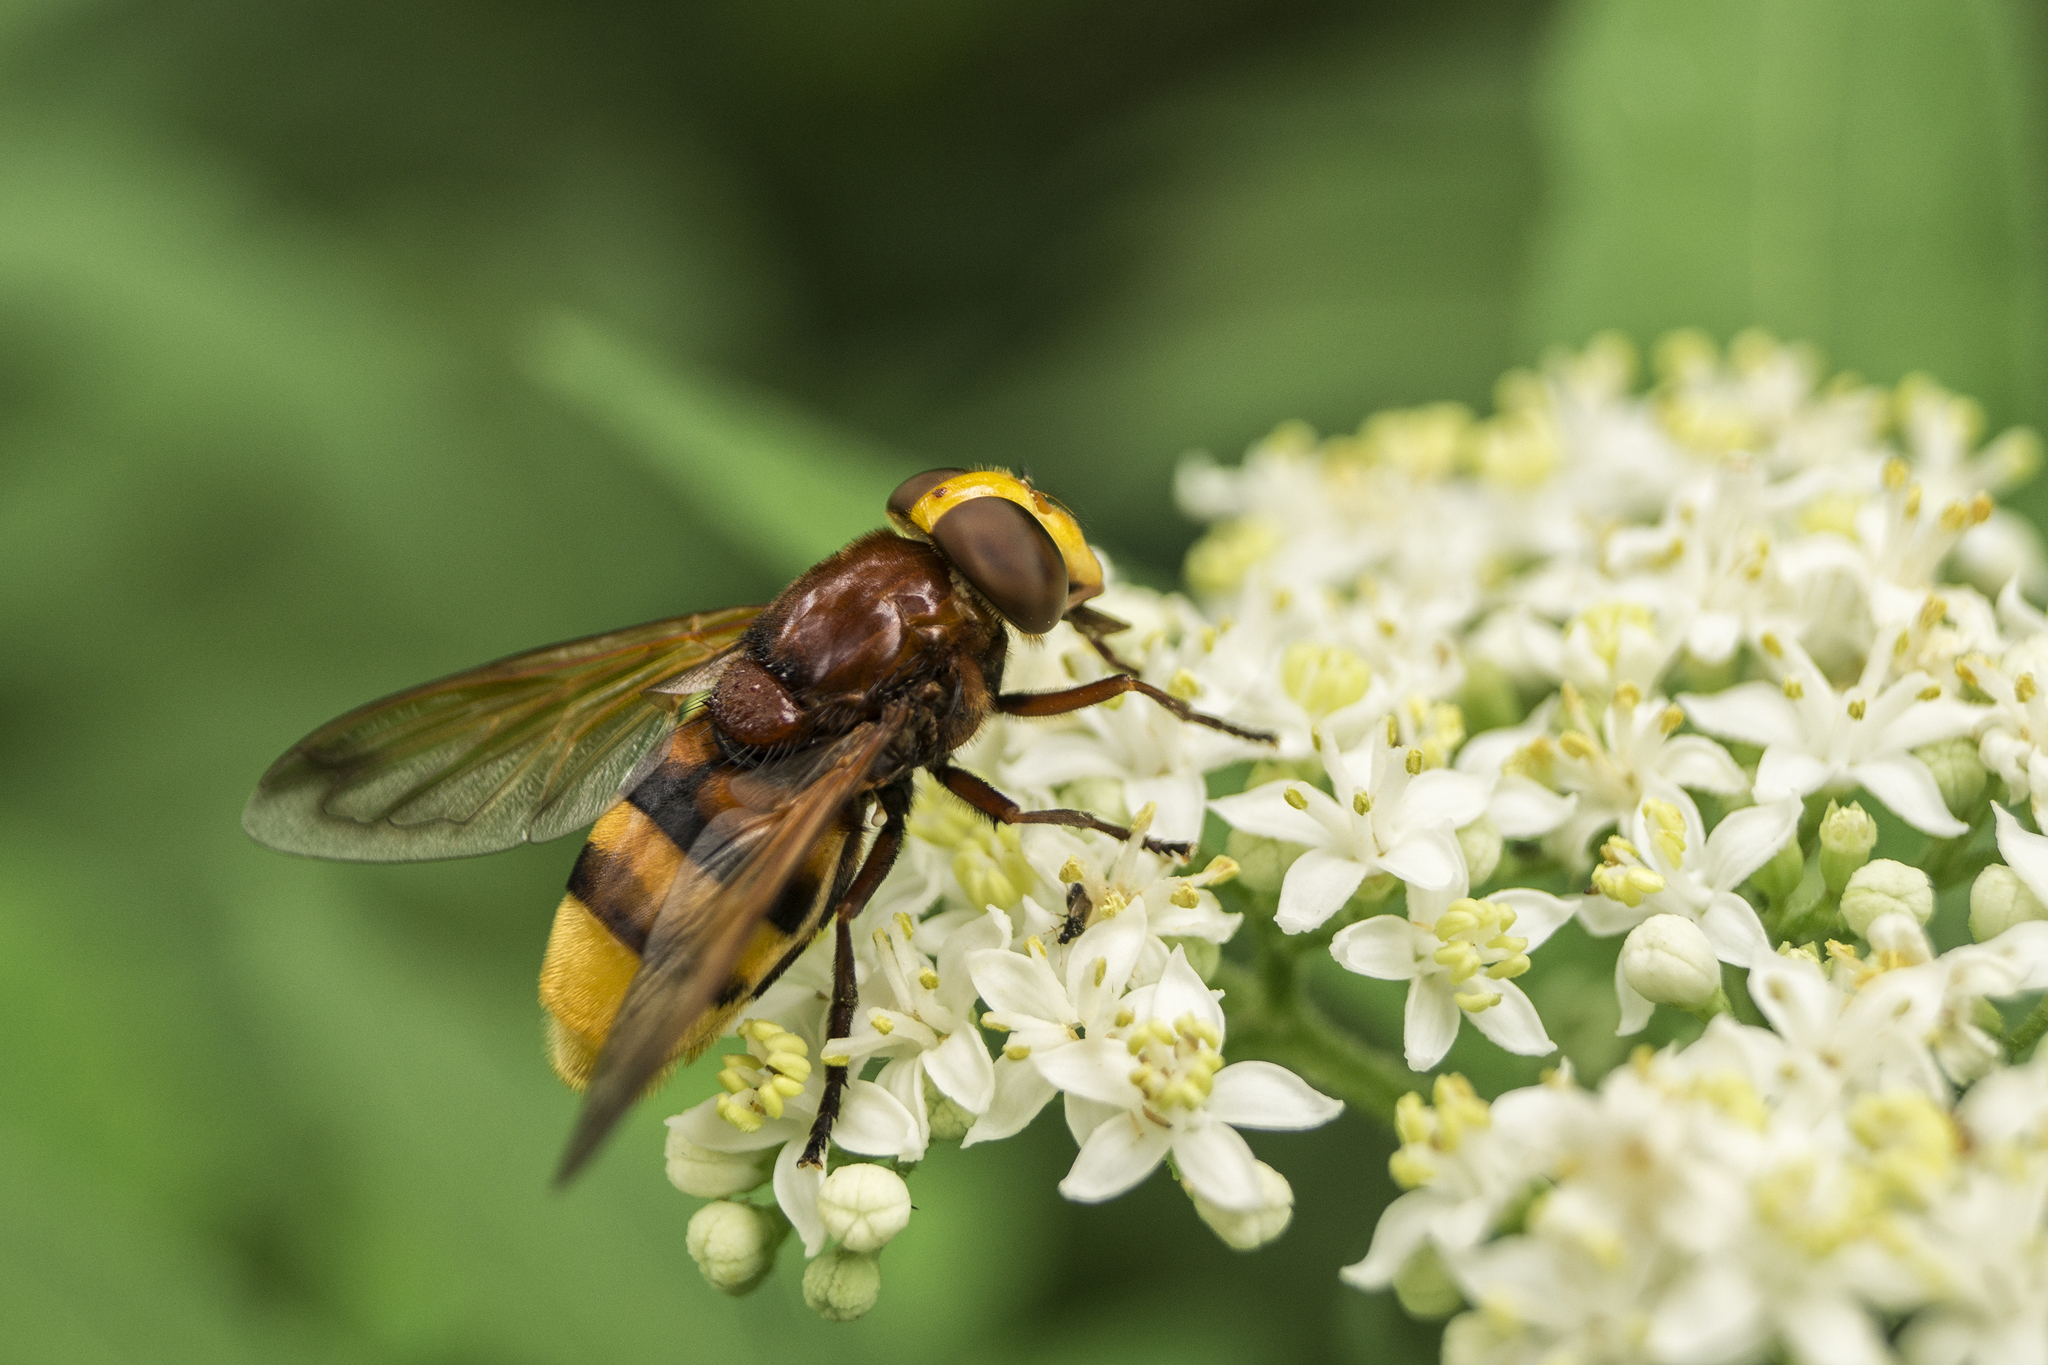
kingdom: Animalia
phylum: Arthropoda
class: Insecta
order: Diptera
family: Syrphidae
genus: Volucella
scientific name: Volucella zonaria
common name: Hornet hoverfly
